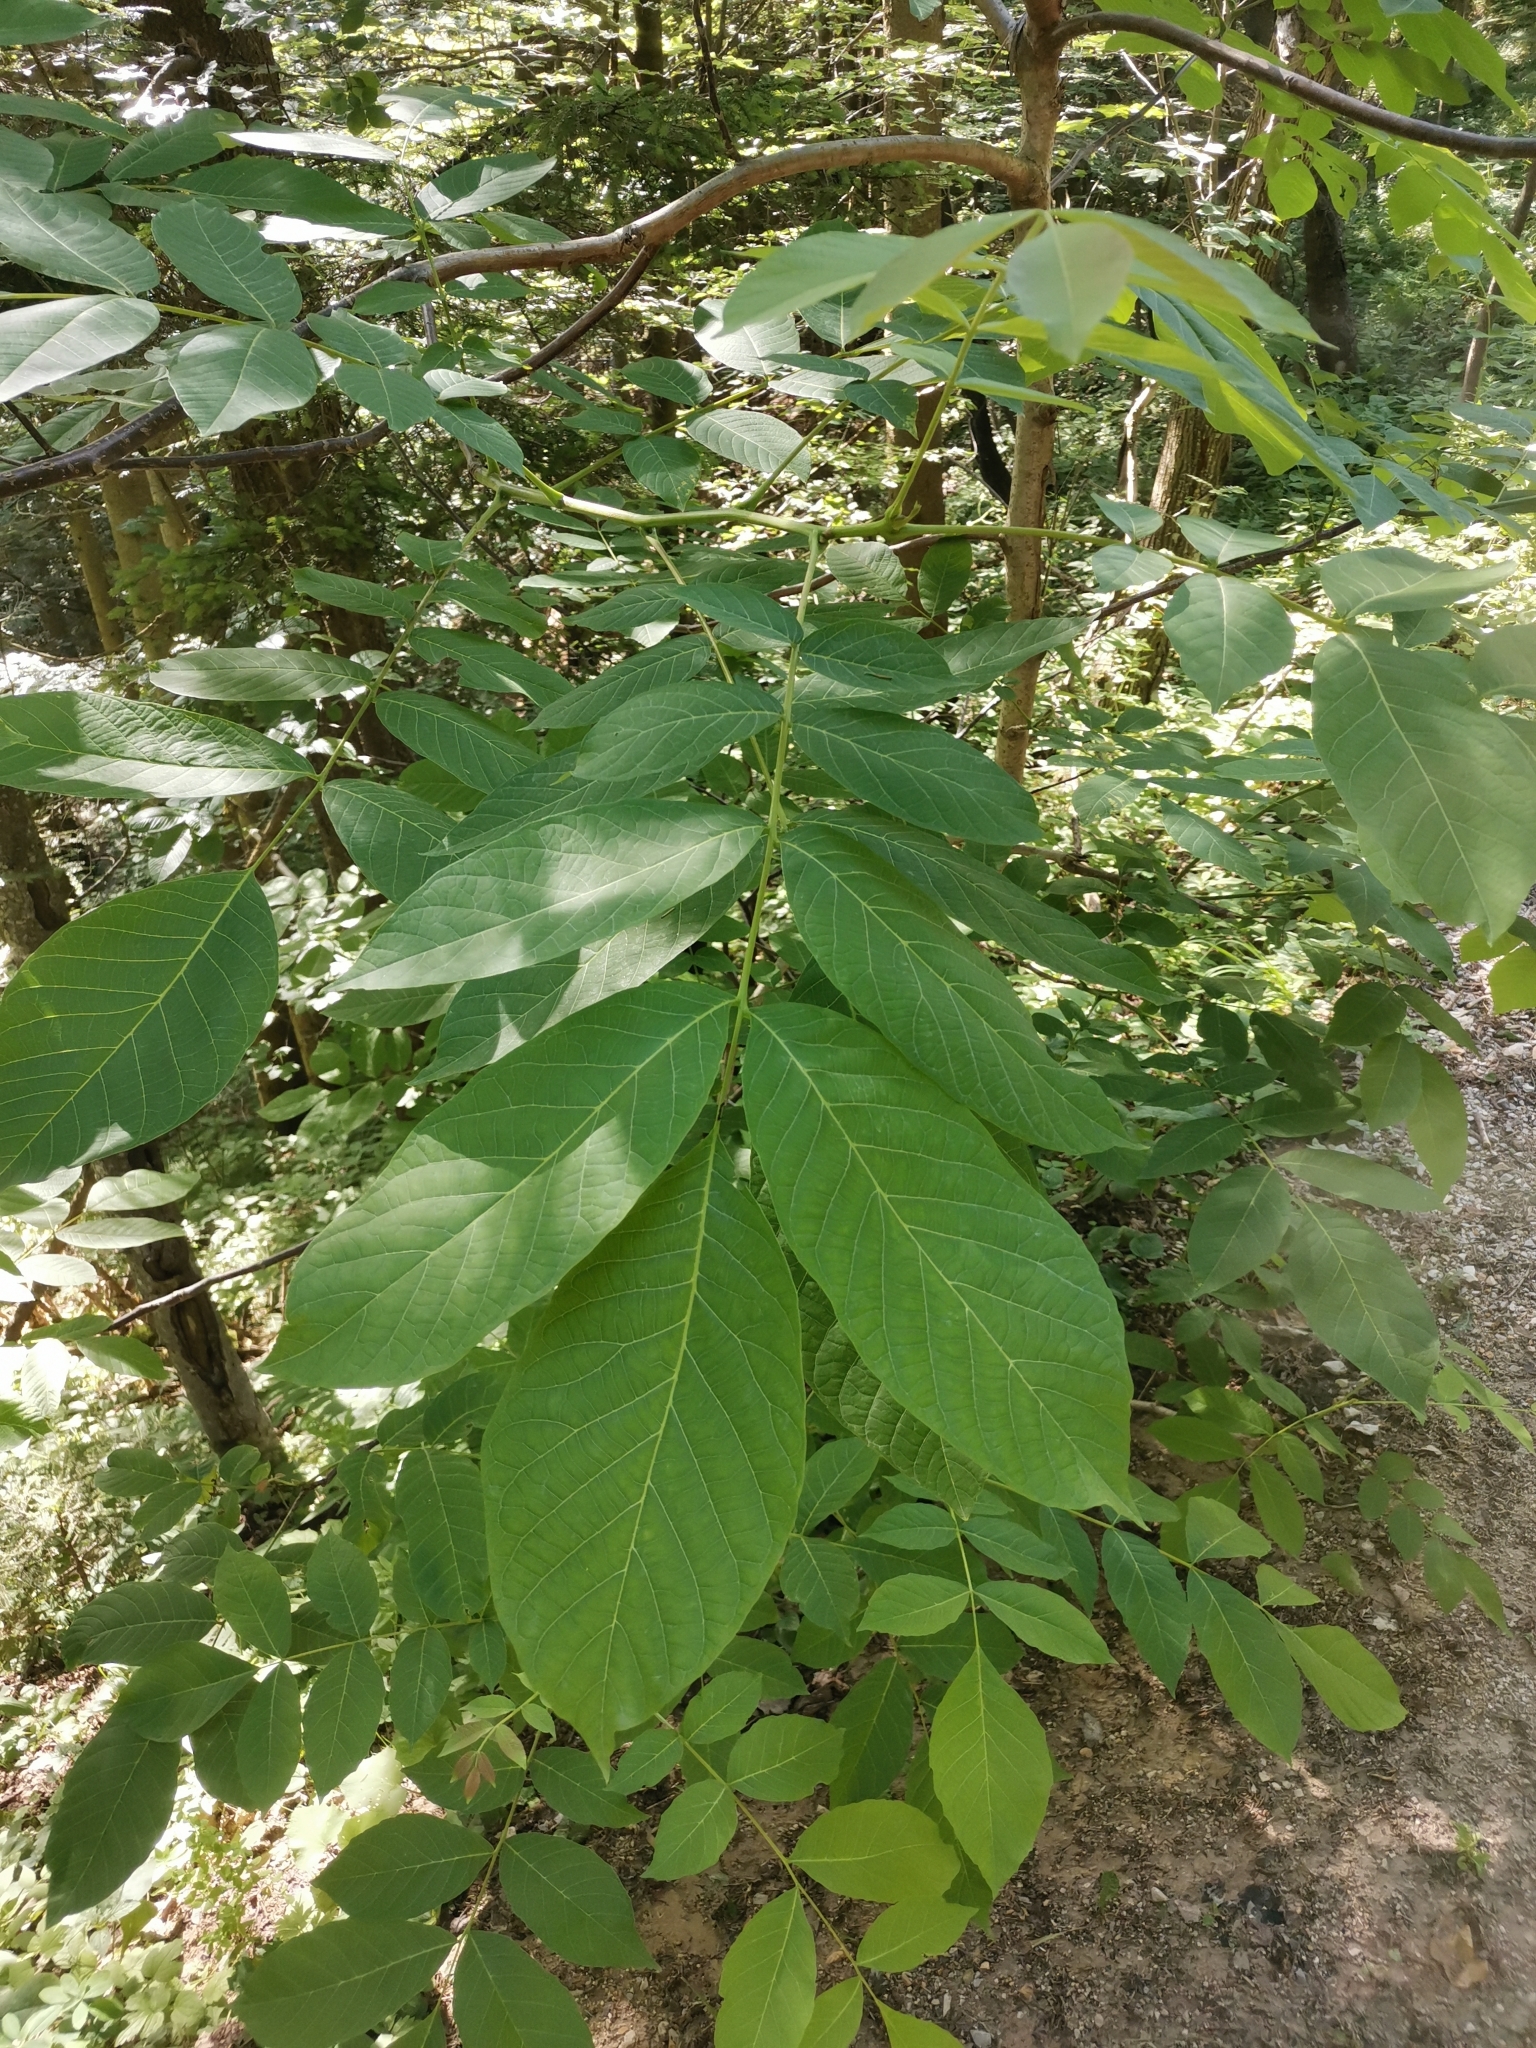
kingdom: Plantae
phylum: Tracheophyta
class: Magnoliopsida
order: Fagales
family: Juglandaceae
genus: Juglans
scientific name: Juglans regia
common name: Walnut
